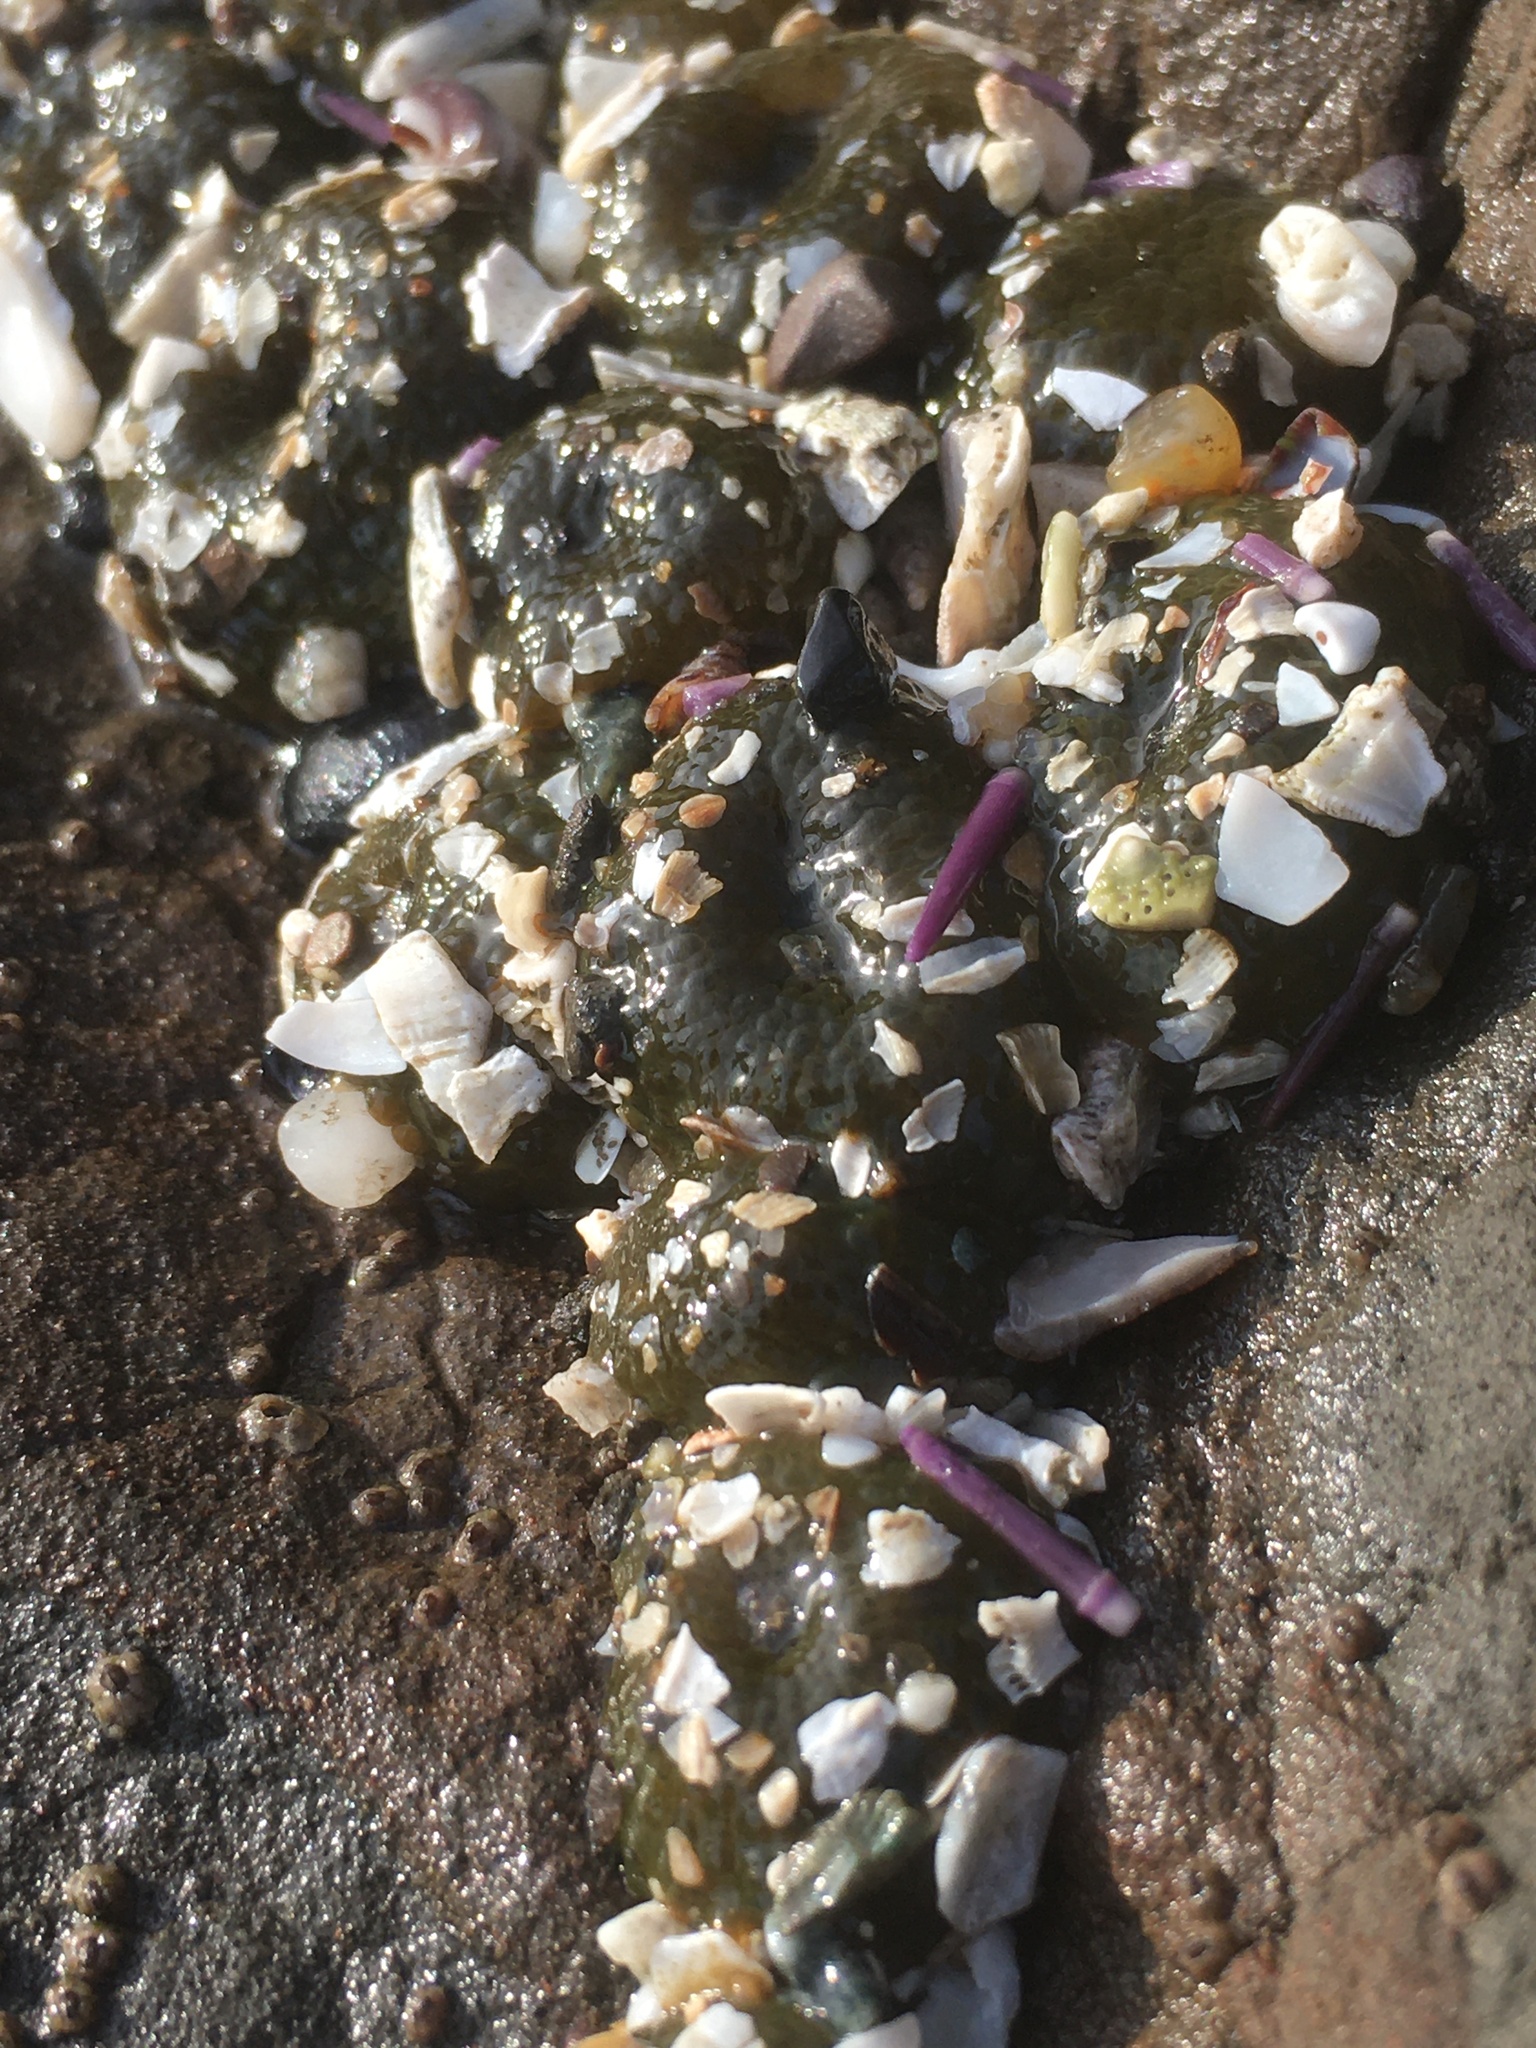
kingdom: Animalia
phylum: Cnidaria
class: Anthozoa
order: Actiniaria
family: Actiniidae
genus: Anthopleura
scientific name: Anthopleura elegantissima
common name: Clonal anemone
